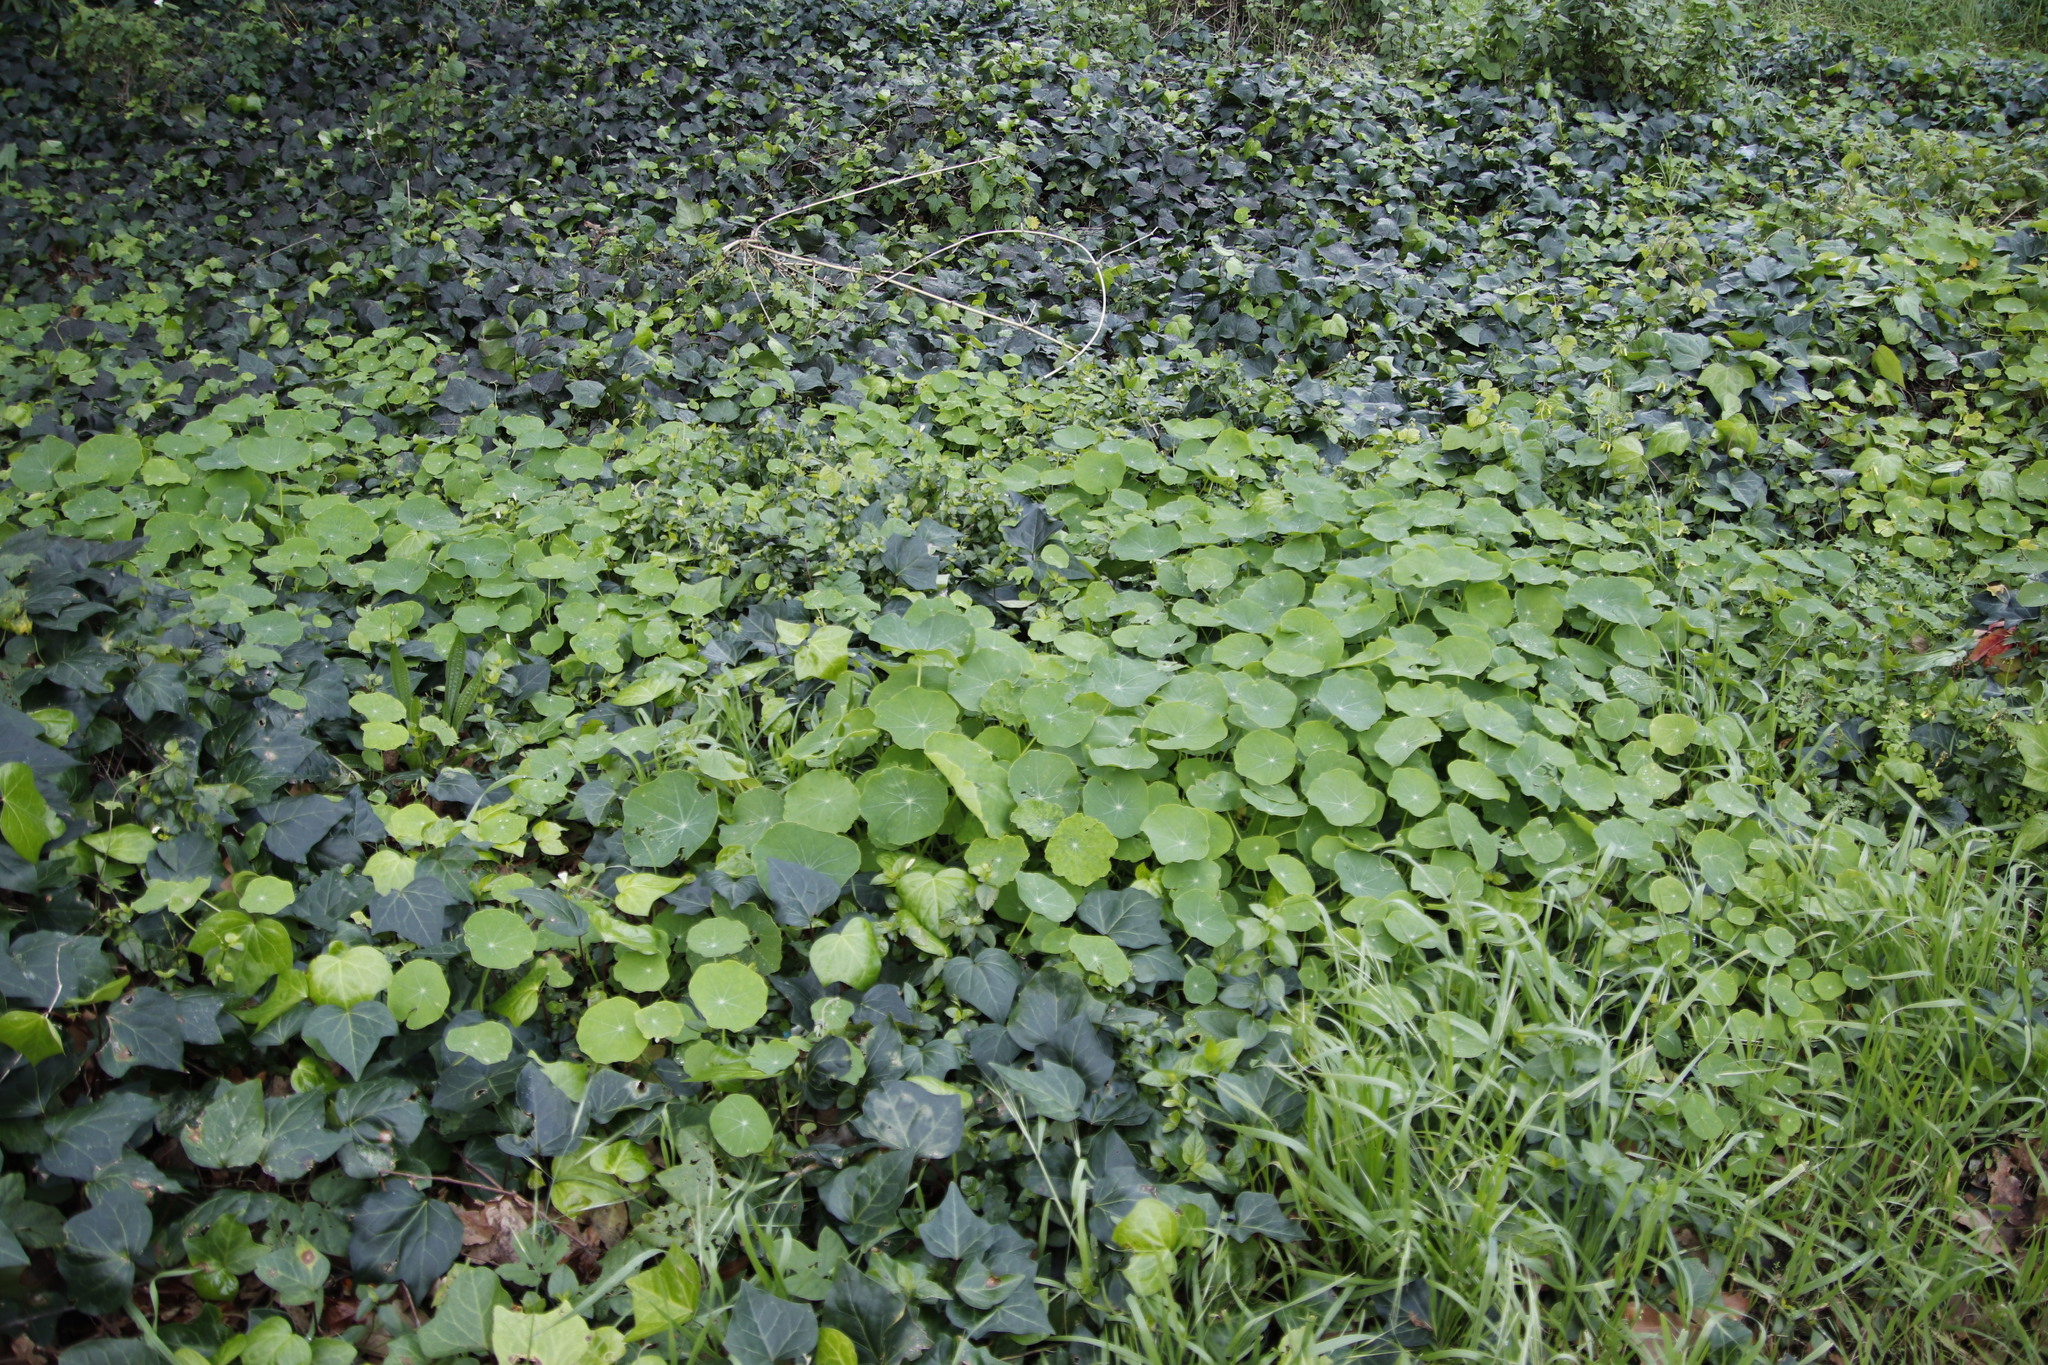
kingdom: Plantae
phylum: Tracheophyta
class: Magnoliopsida
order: Brassicales
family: Tropaeolaceae
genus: Tropaeolum
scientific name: Tropaeolum majus
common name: Nasturtium
